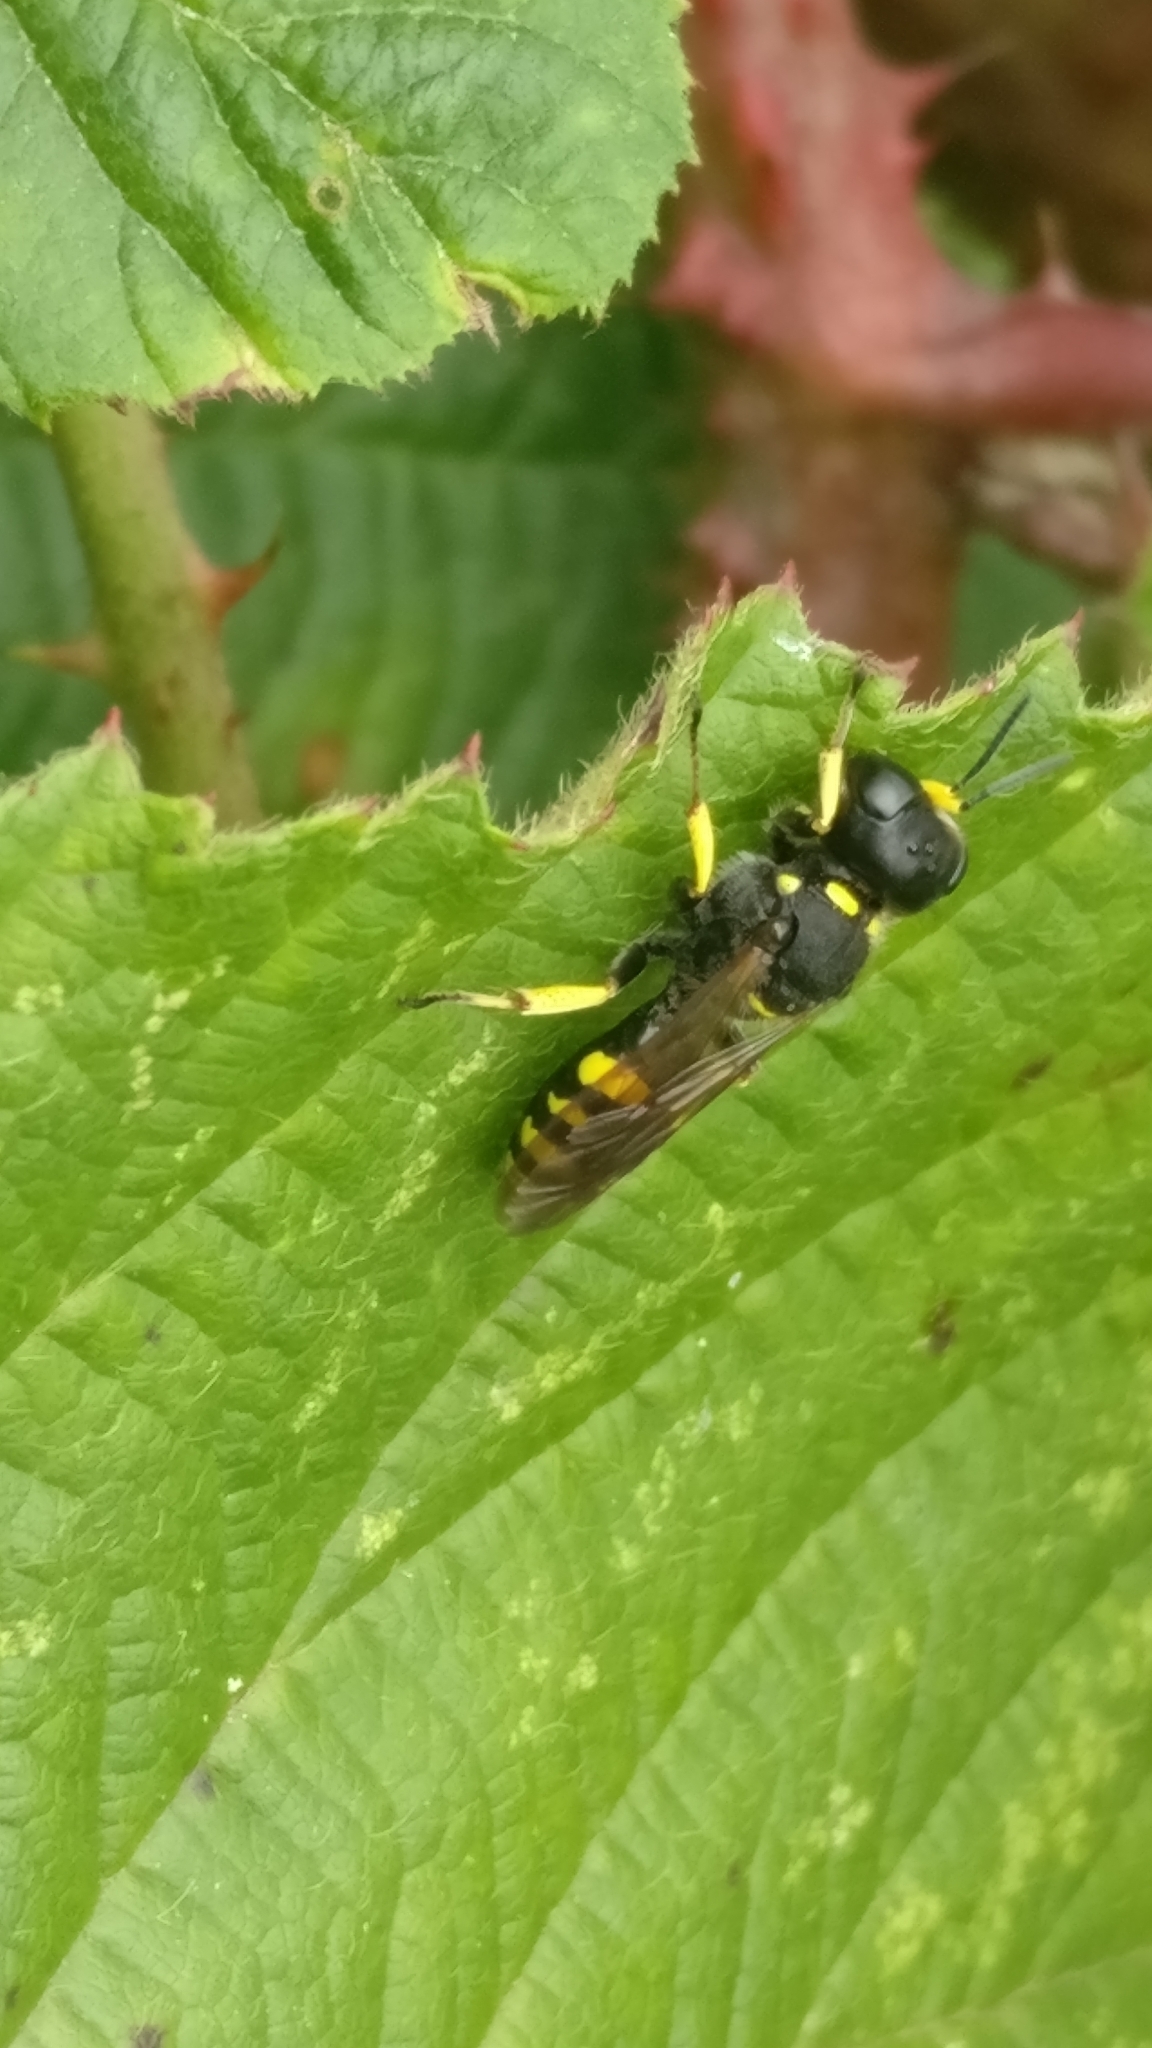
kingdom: Animalia
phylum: Arthropoda
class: Insecta
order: Hymenoptera
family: Crabronidae
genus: Ectemnius
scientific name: Ectemnius
